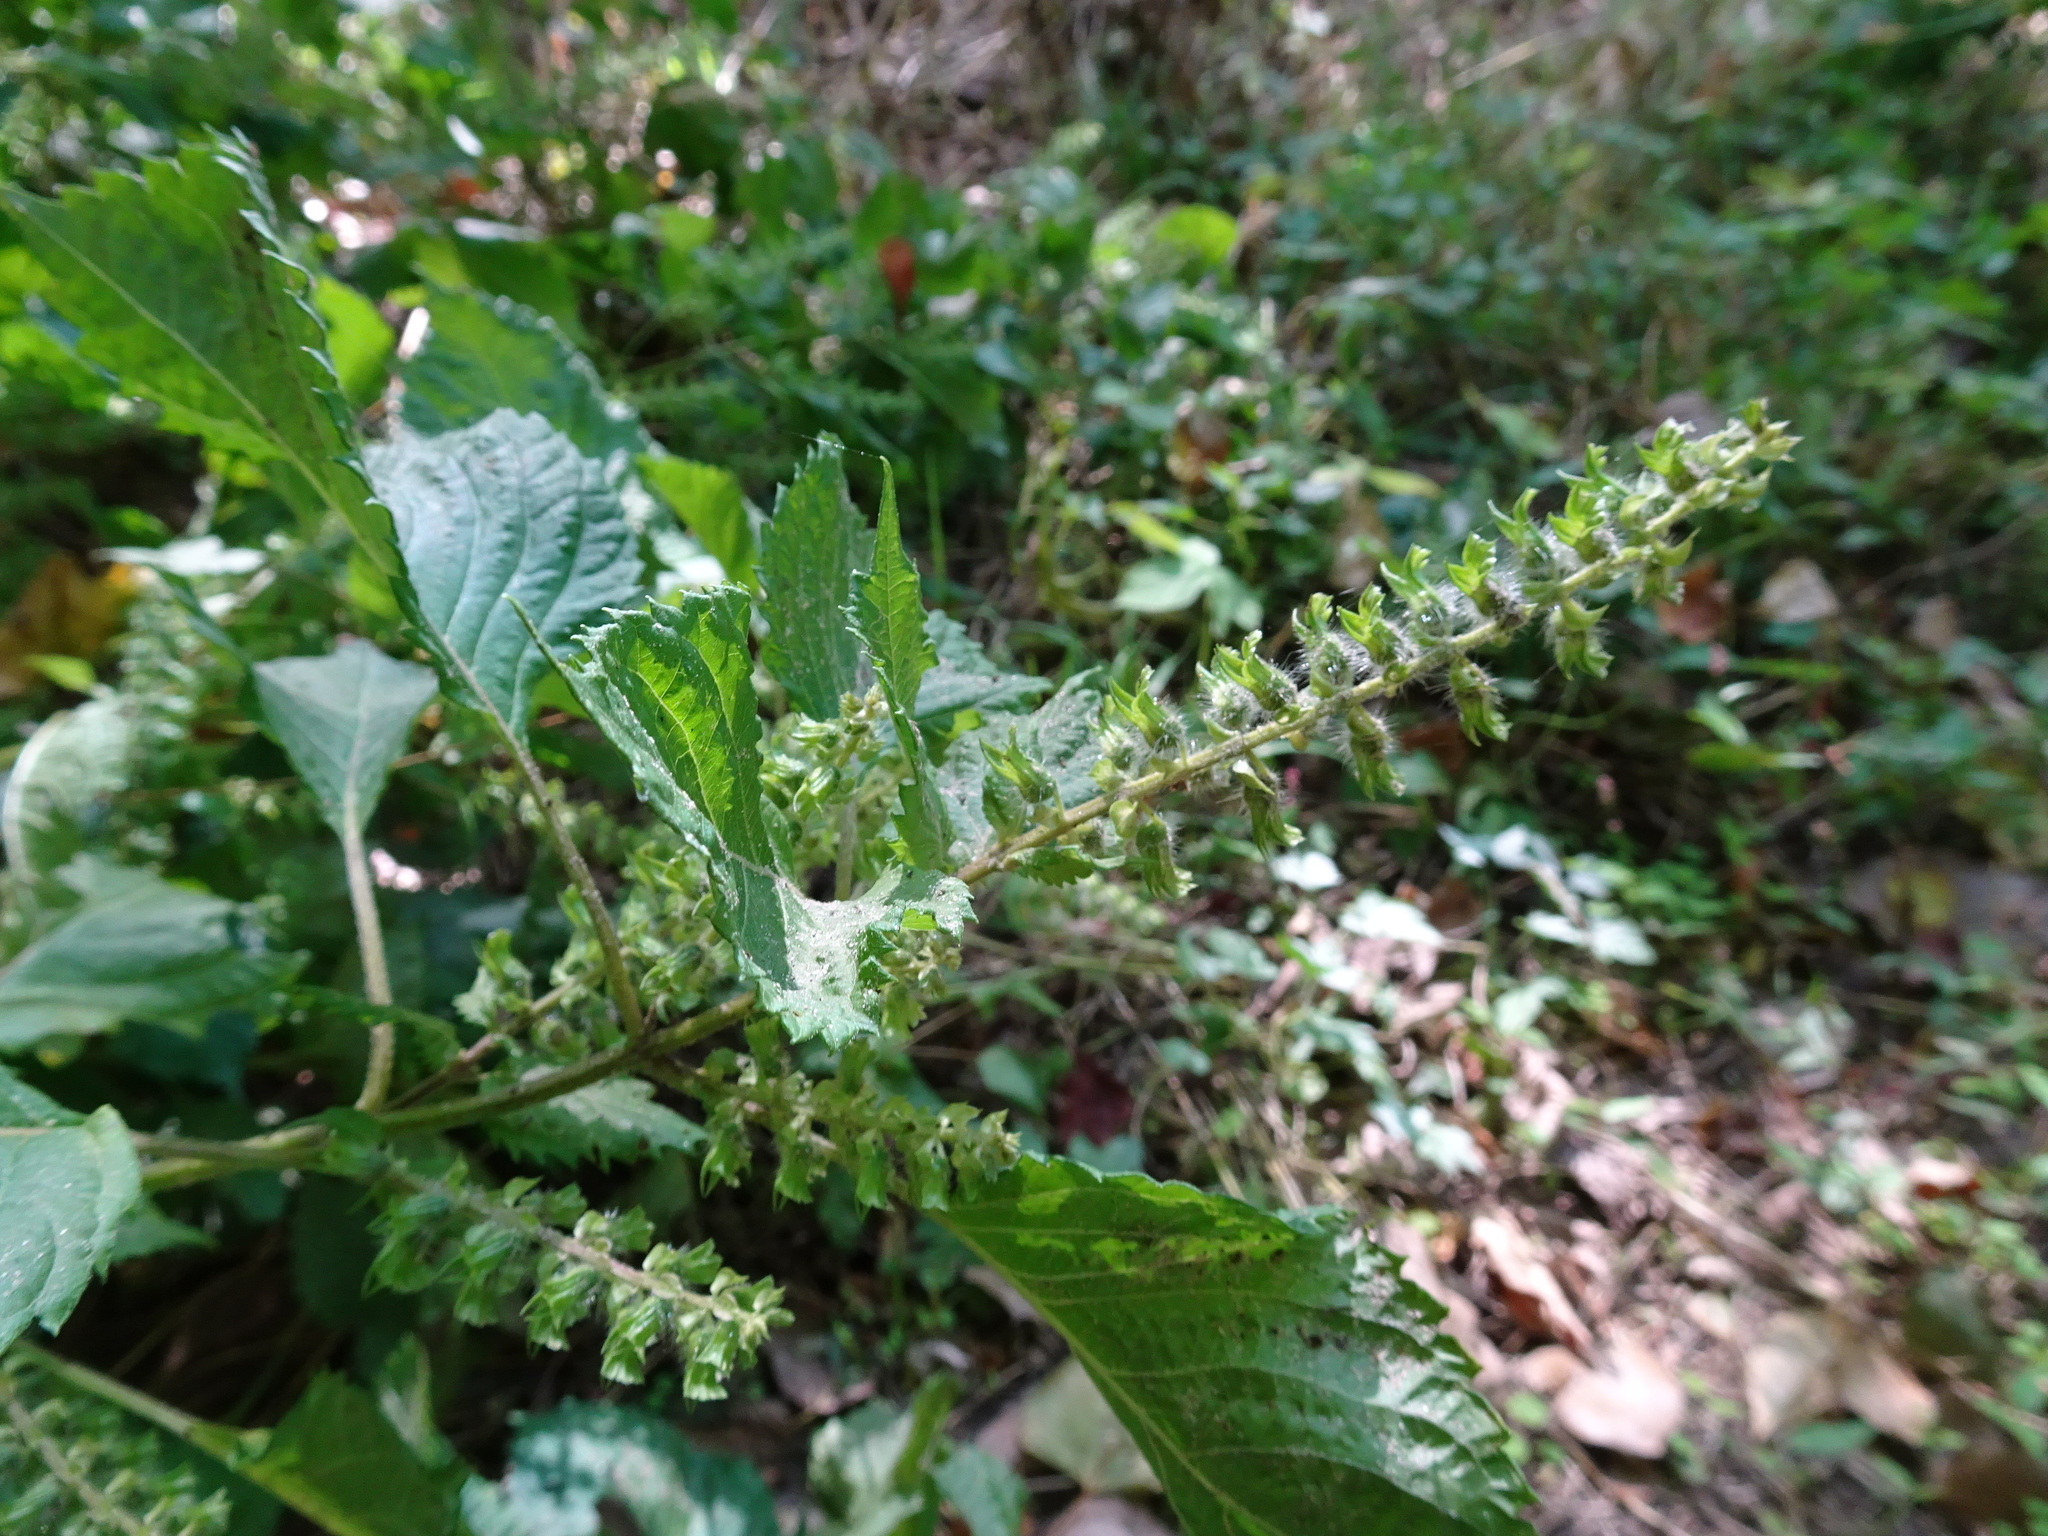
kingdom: Plantae
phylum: Tracheophyta
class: Magnoliopsida
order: Lamiales
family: Lamiaceae
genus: Perilla
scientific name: Perilla frutescens
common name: Perilla
